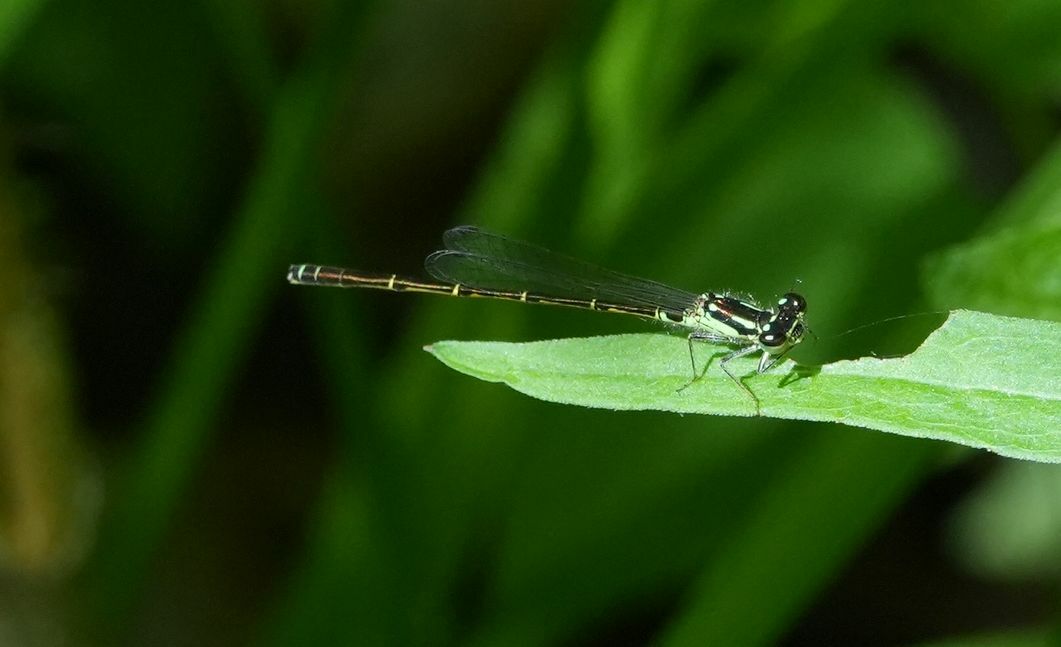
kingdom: Animalia
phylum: Arthropoda
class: Insecta
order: Odonata
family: Coenagrionidae
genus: Ischnura
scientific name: Ischnura posita
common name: Fragile forktail
